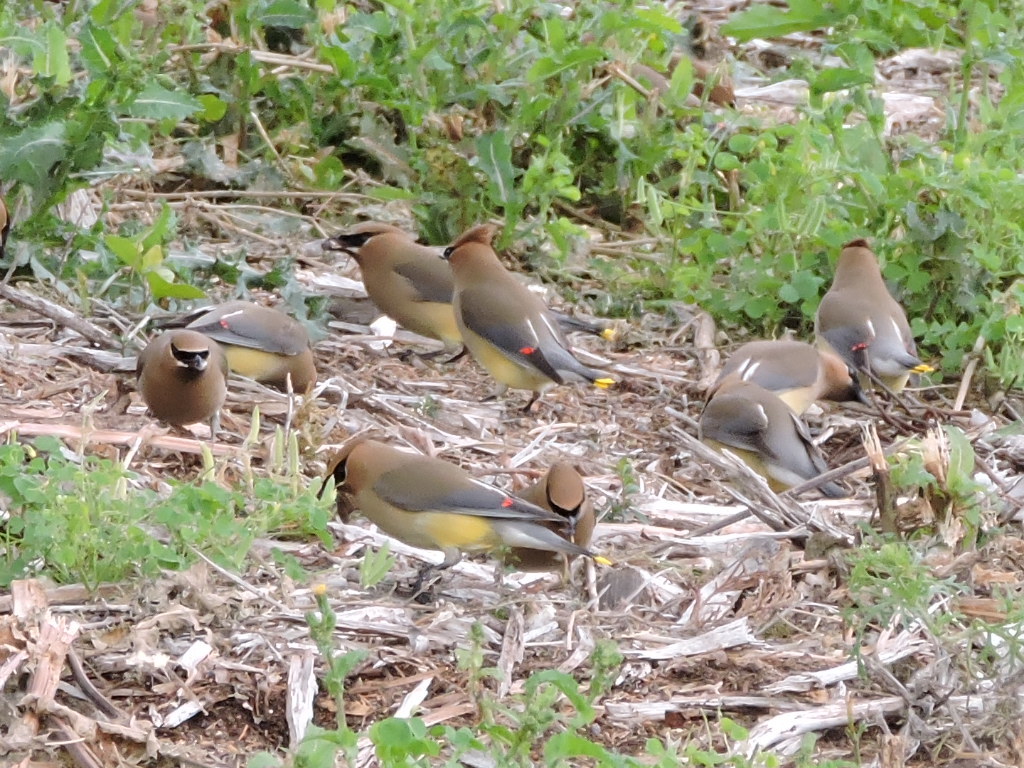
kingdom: Animalia
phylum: Chordata
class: Aves
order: Passeriformes
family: Bombycillidae
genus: Bombycilla
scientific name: Bombycilla cedrorum
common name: Cedar waxwing
